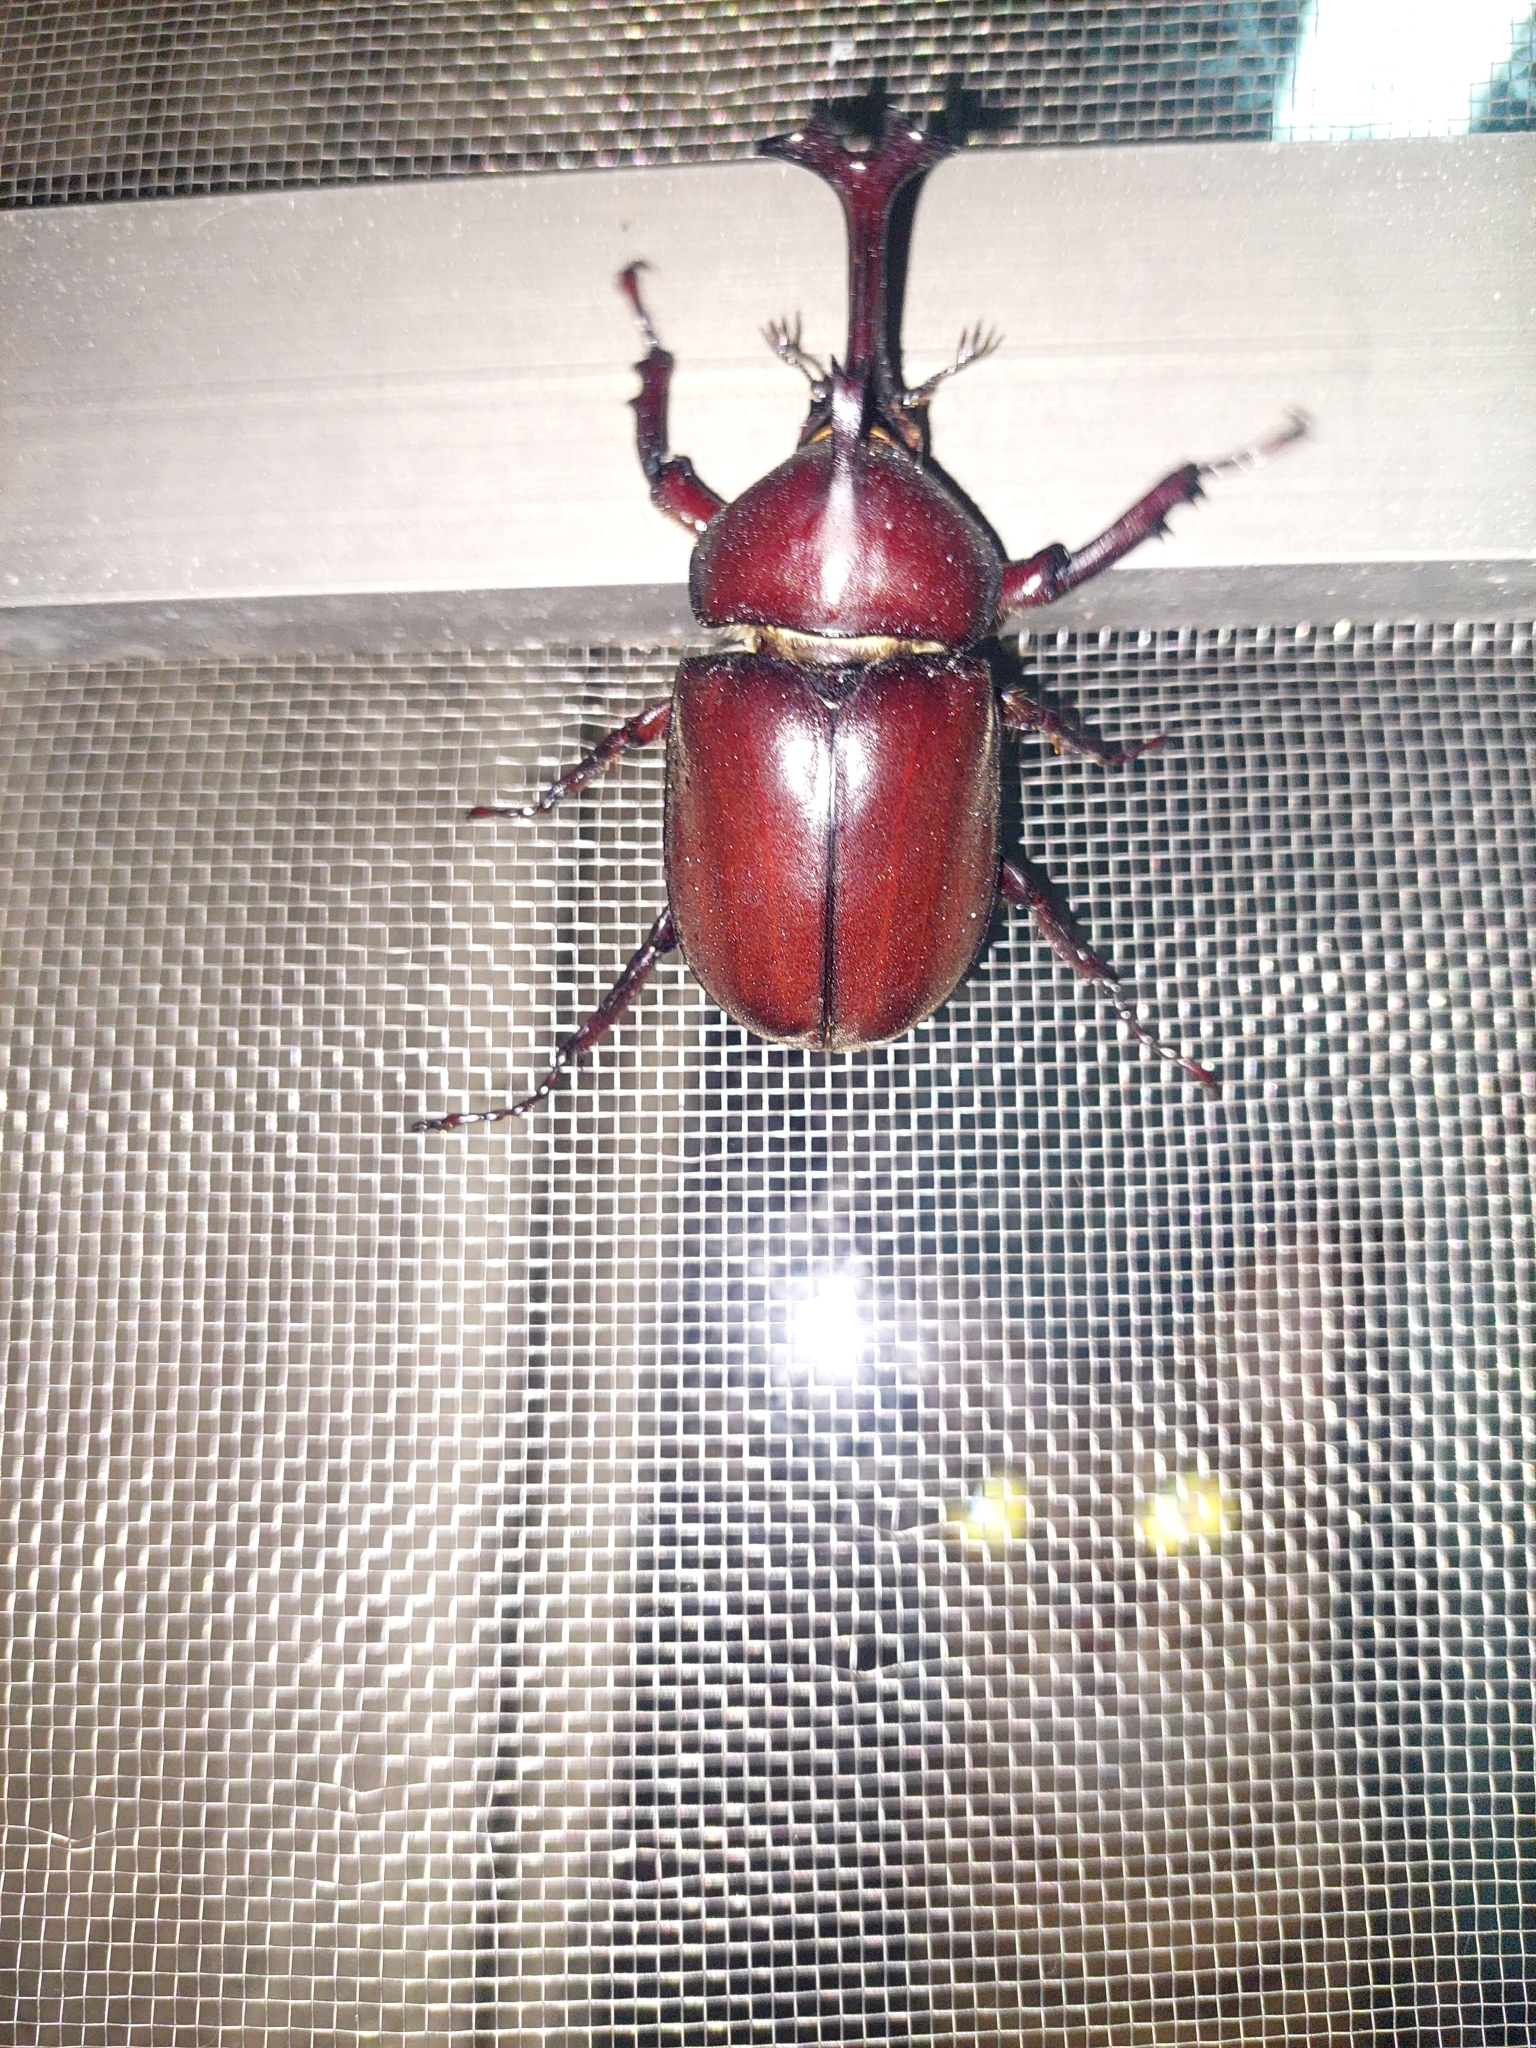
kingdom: Animalia
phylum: Arthropoda
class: Insecta
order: Coleoptera
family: Scarabaeidae
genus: Trypoxylus
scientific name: Trypoxylus dichotomus
